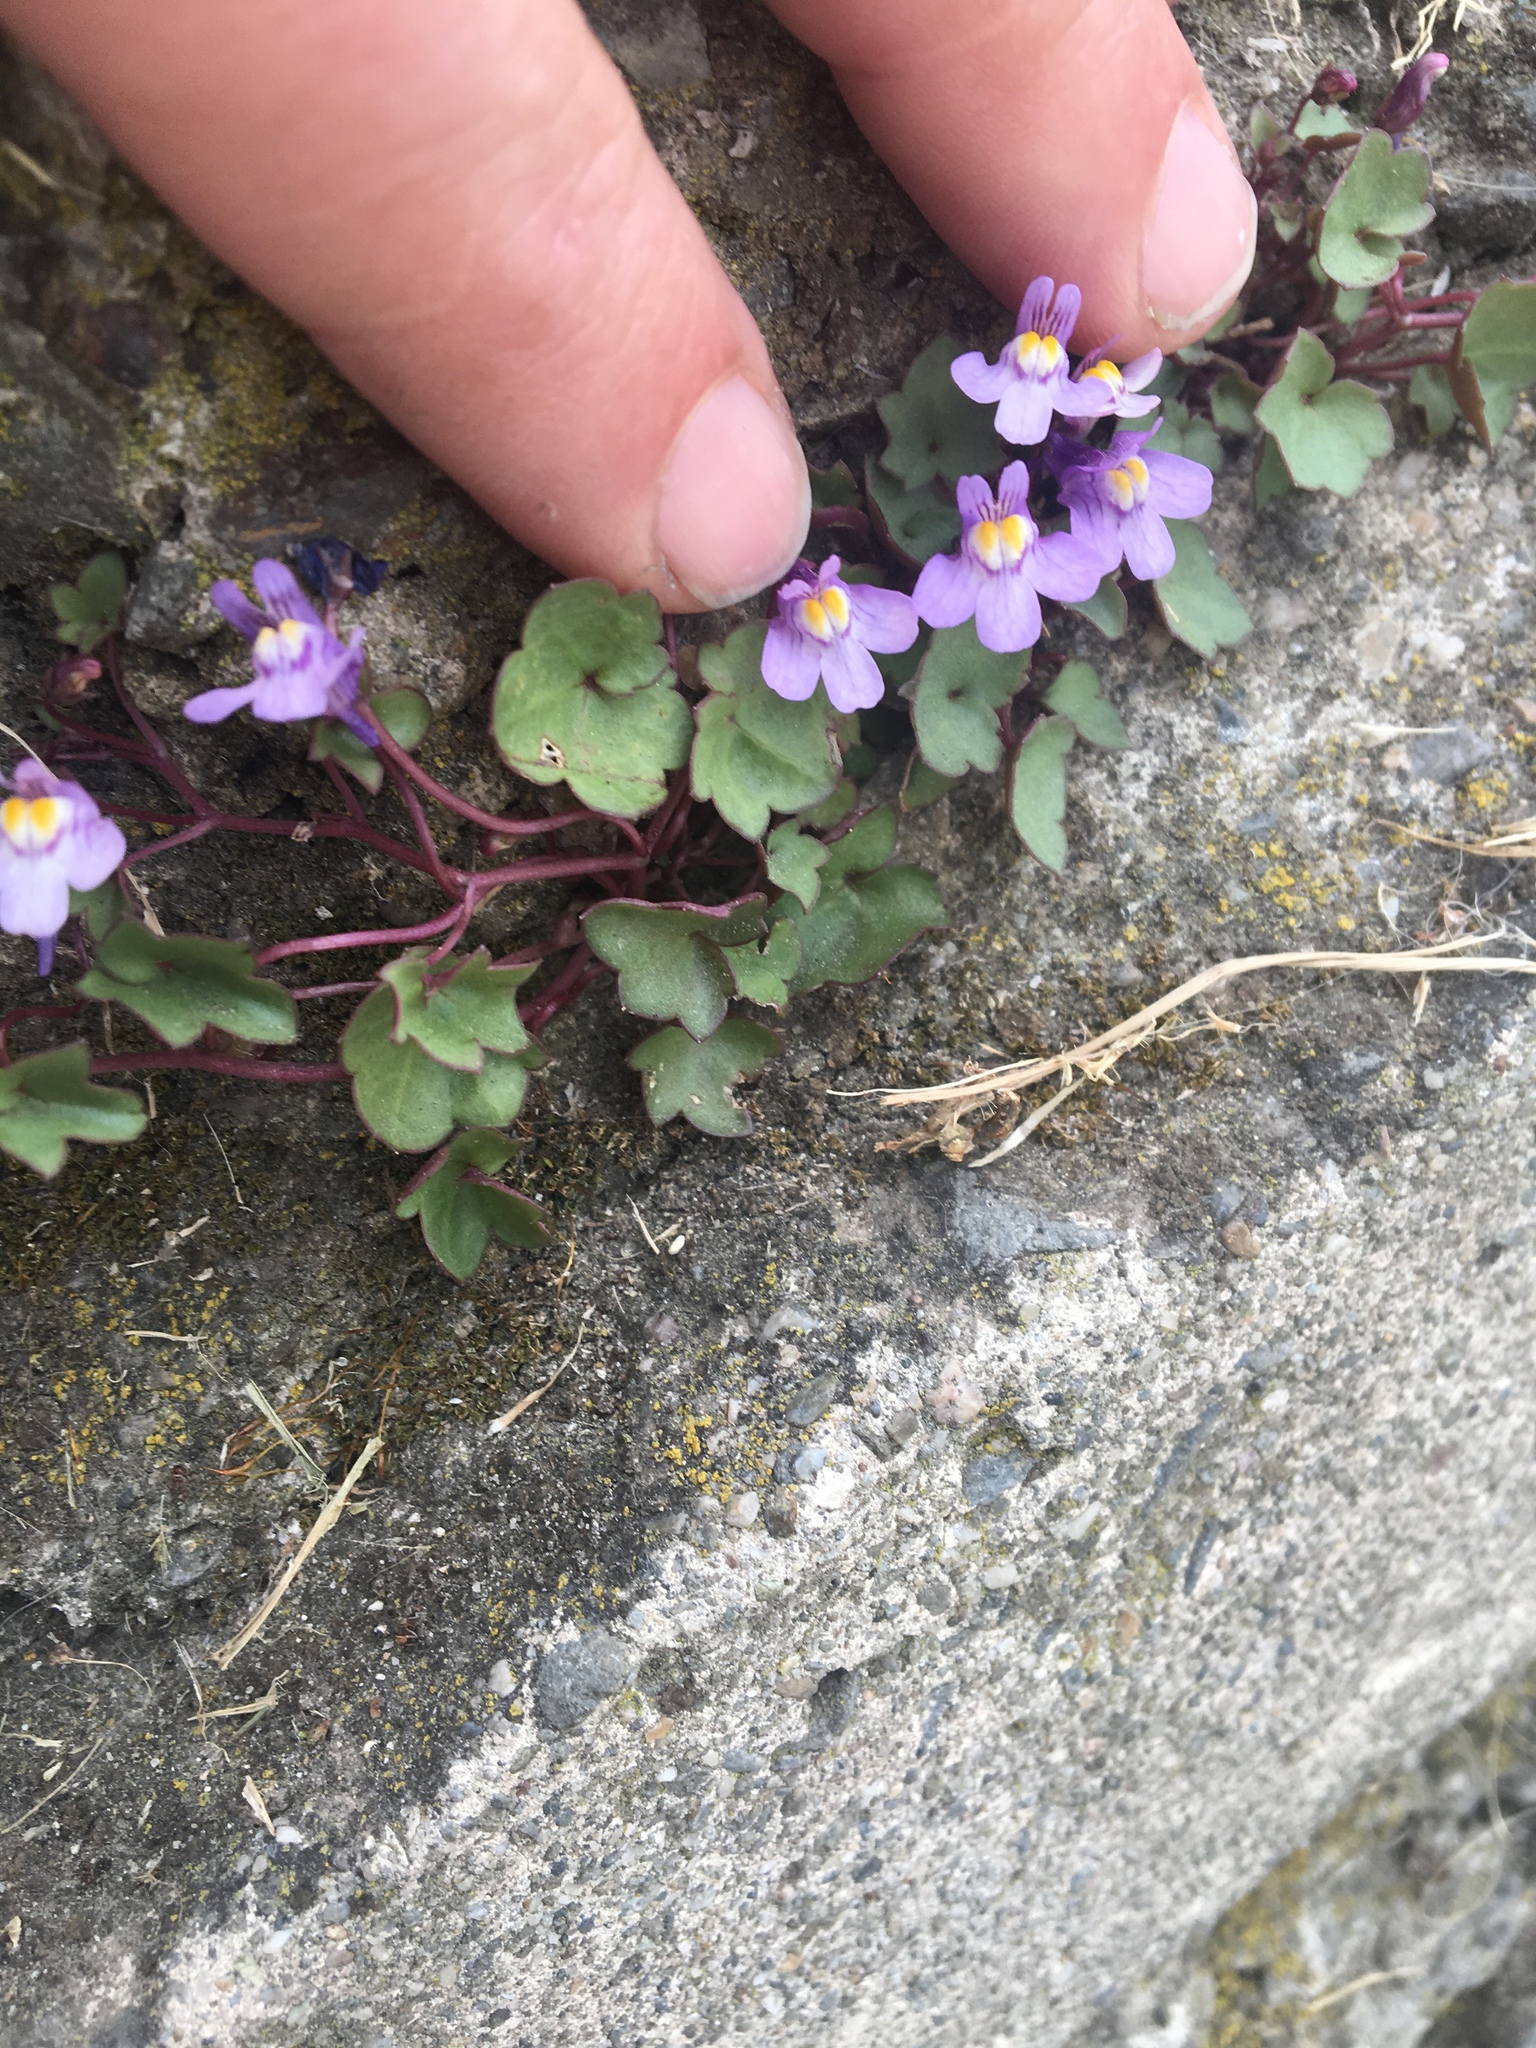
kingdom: Plantae
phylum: Tracheophyta
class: Magnoliopsida
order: Lamiales
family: Plantaginaceae
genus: Cymbalaria
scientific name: Cymbalaria muralis
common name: Ivy-leaved toadflax
